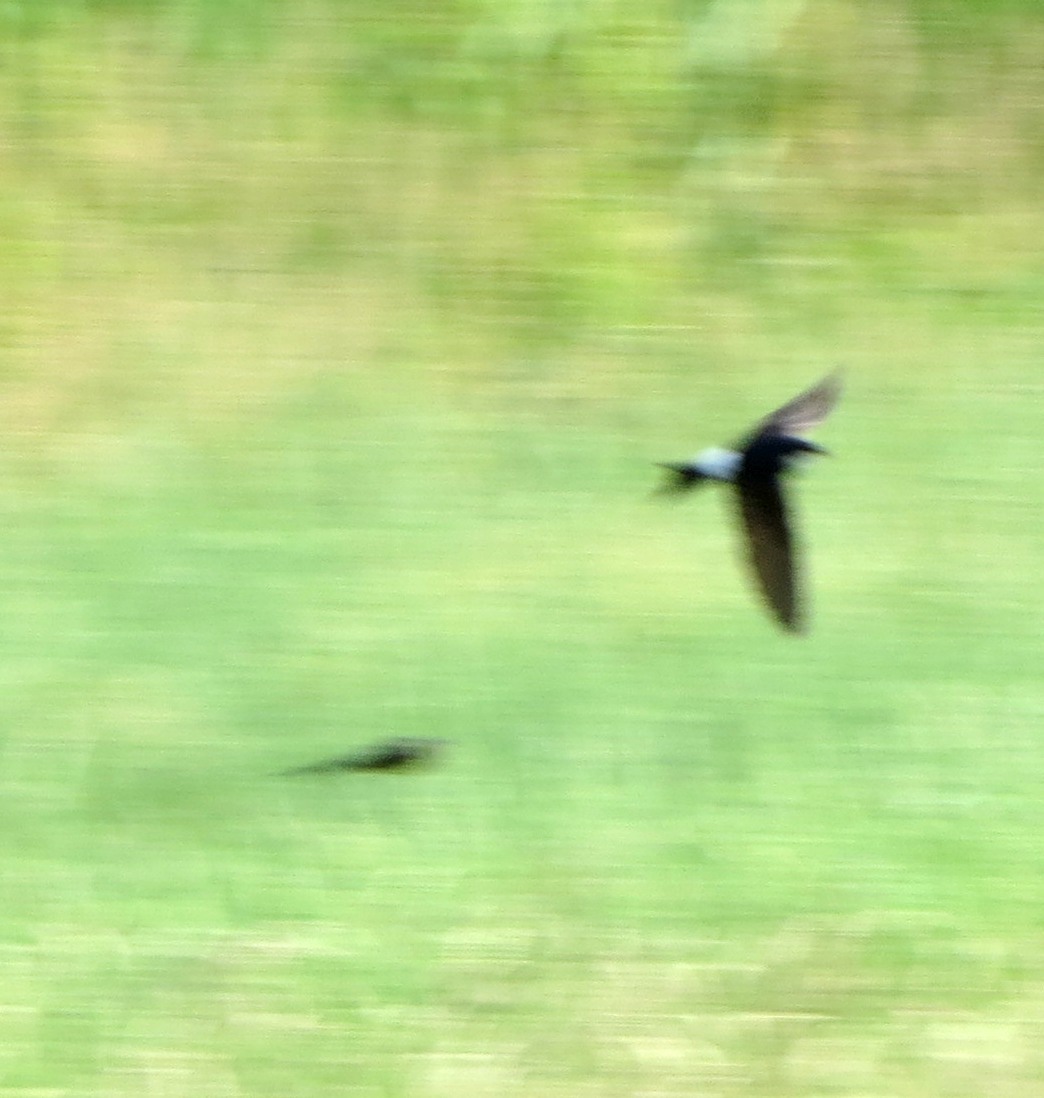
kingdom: Animalia
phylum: Chordata
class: Aves
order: Passeriformes
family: Hirundinidae
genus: Delichon
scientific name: Delichon urbicum
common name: Common house martin
